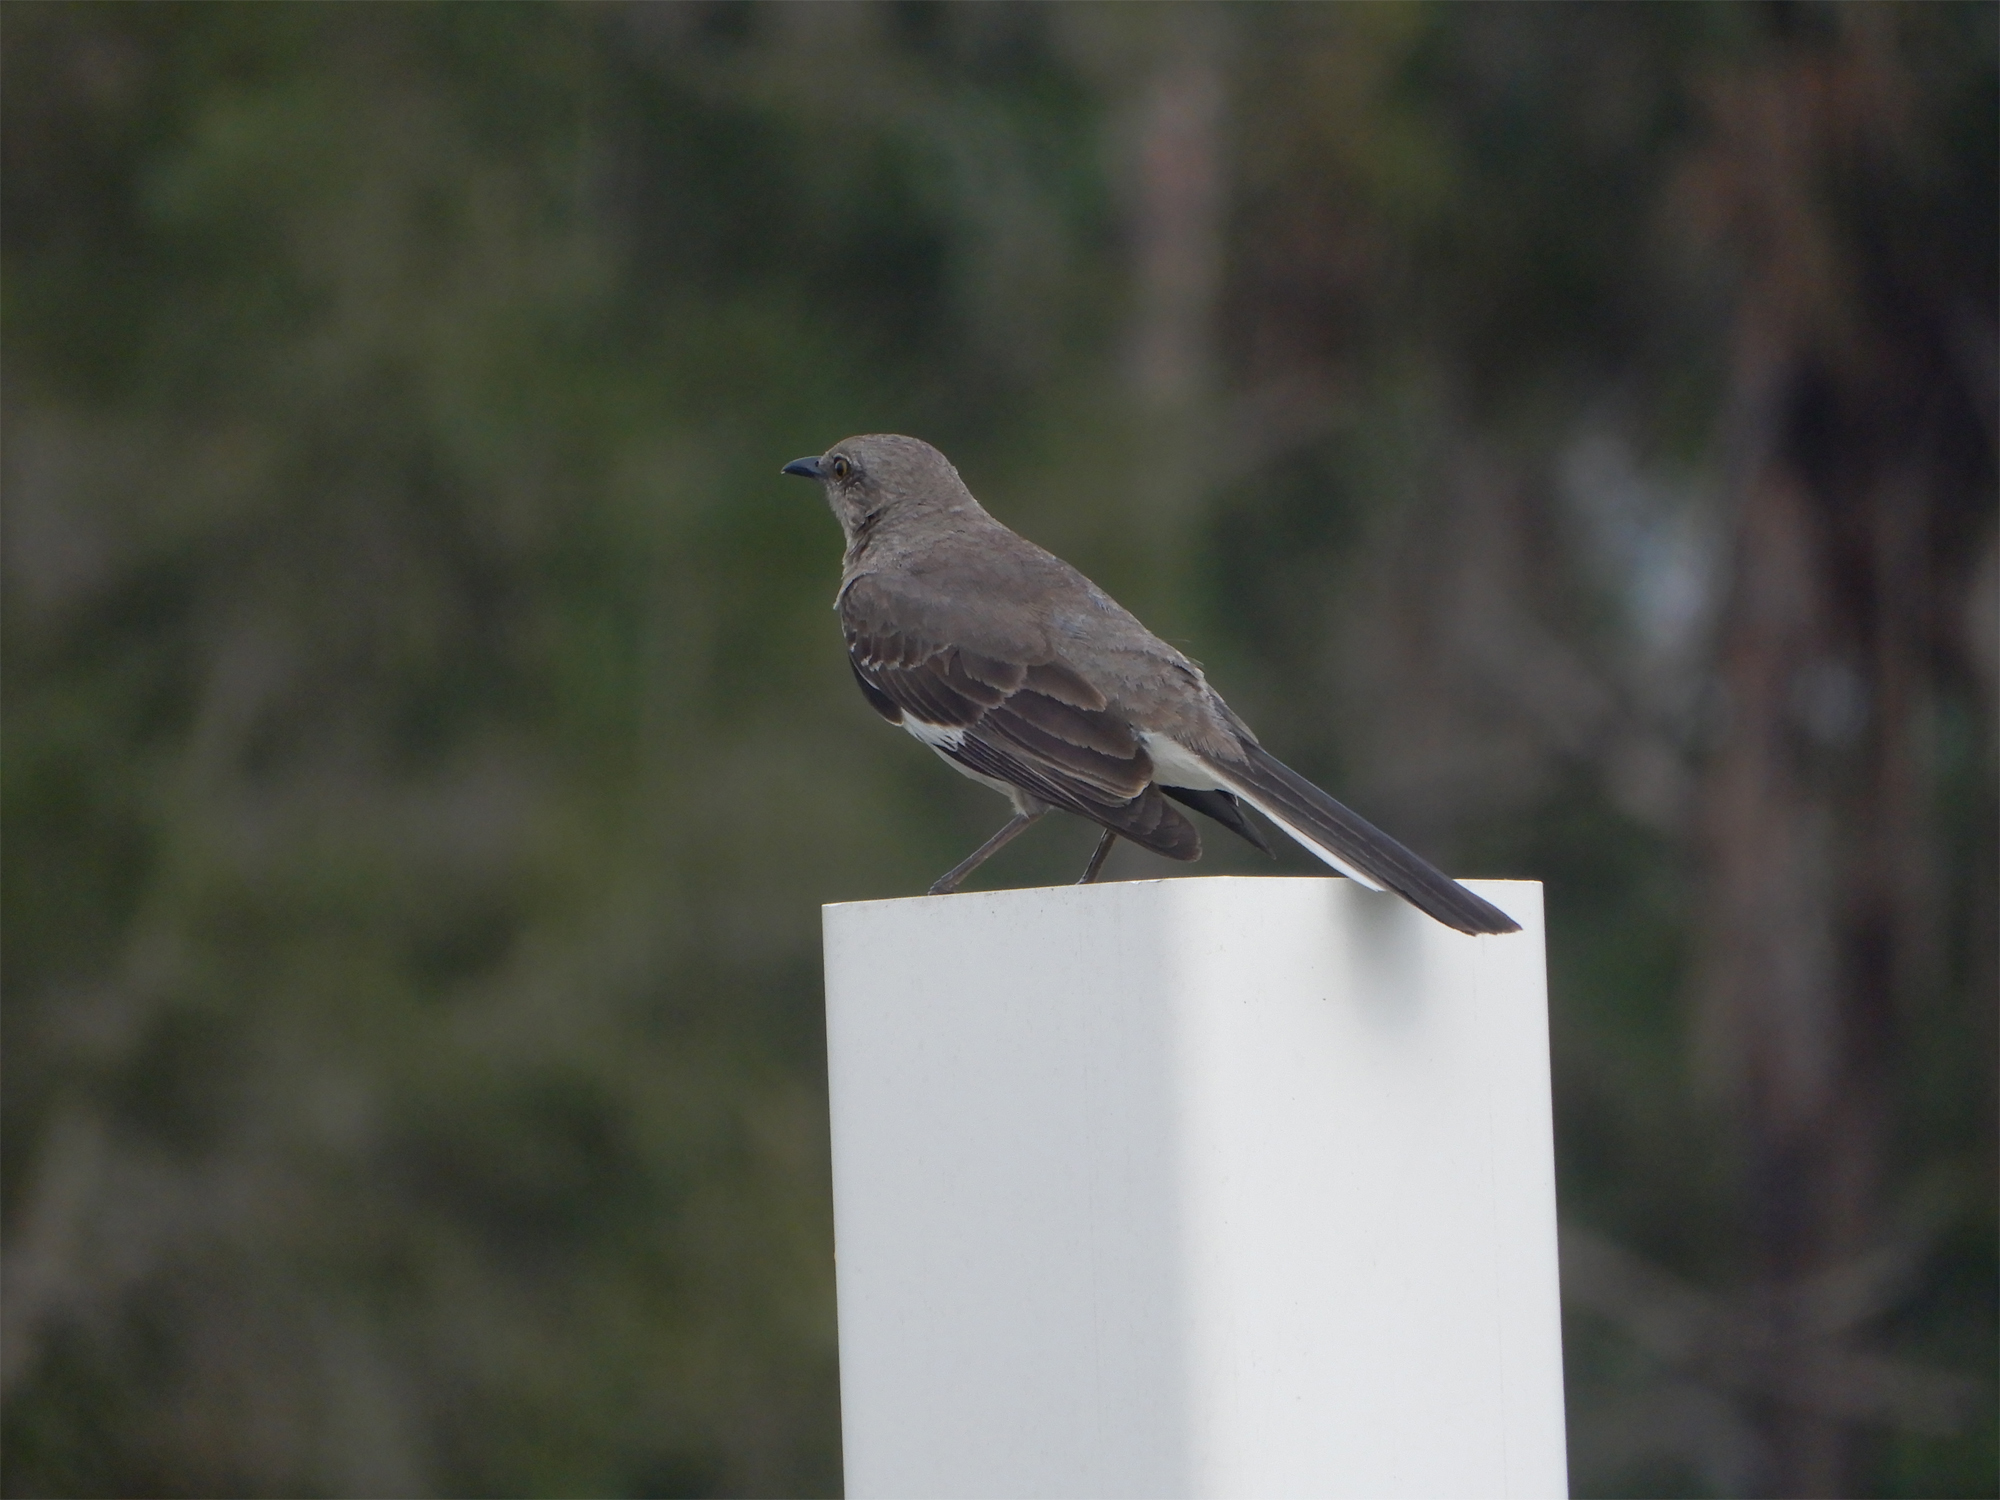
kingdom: Animalia
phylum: Chordata
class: Aves
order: Passeriformes
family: Mimidae
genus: Mimus
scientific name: Mimus polyglottos
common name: Northern mockingbird
